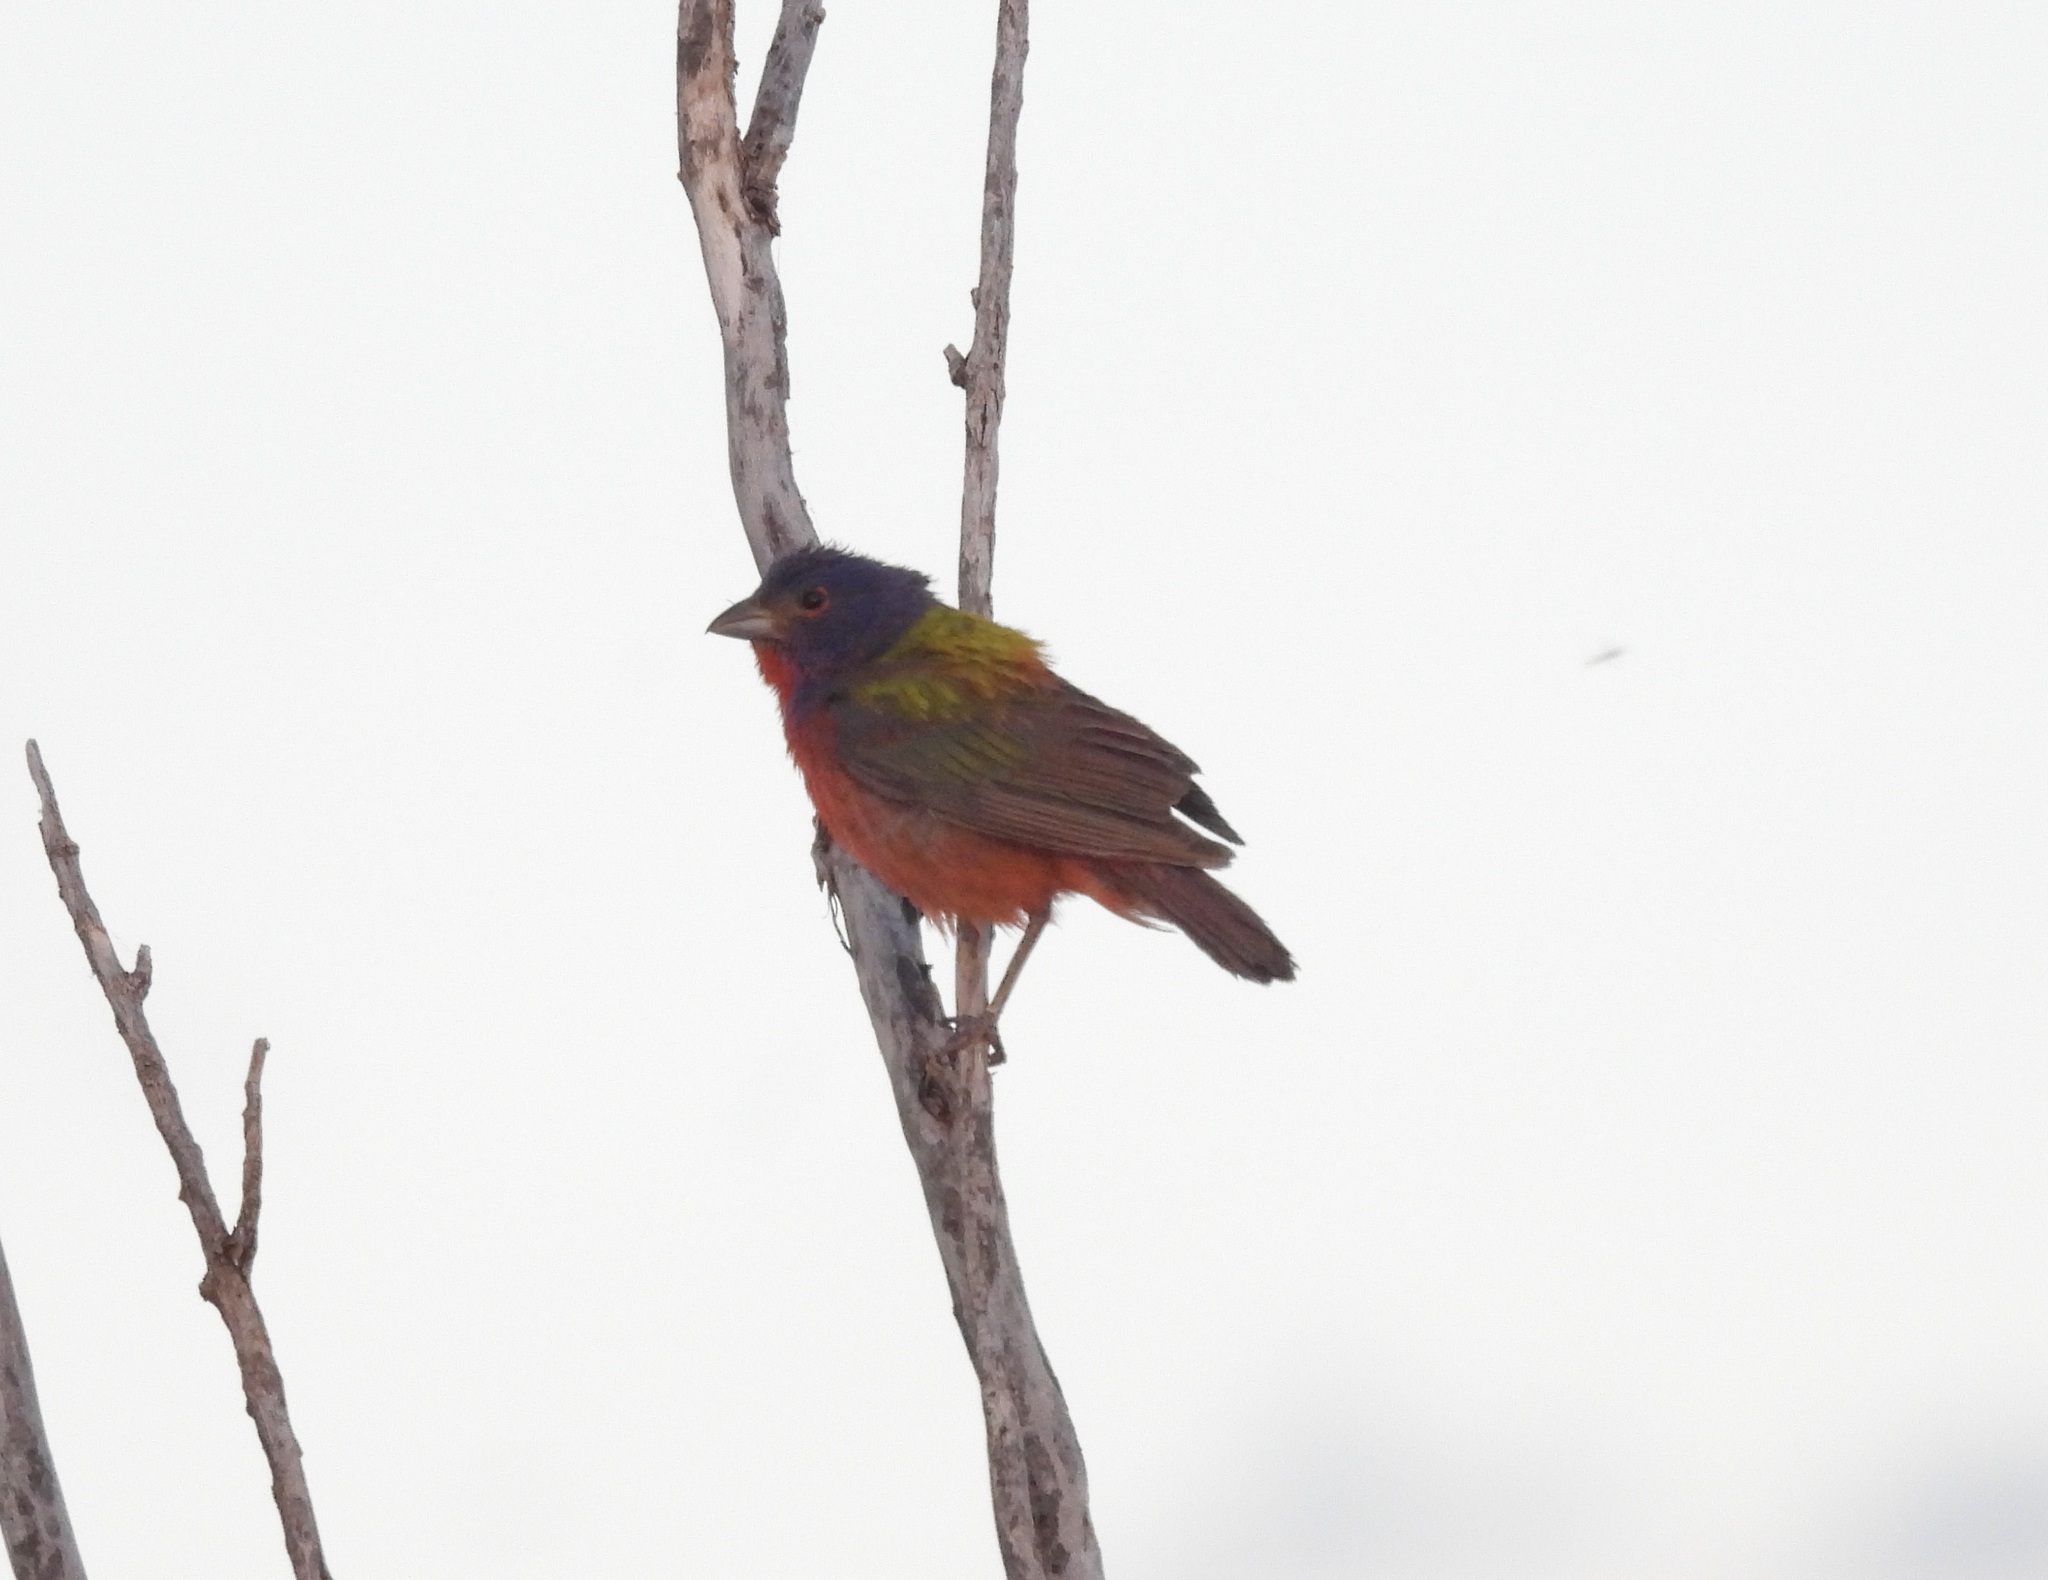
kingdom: Animalia
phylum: Chordata
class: Aves
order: Passeriformes
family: Cardinalidae
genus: Passerina
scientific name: Passerina ciris
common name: Painted bunting
